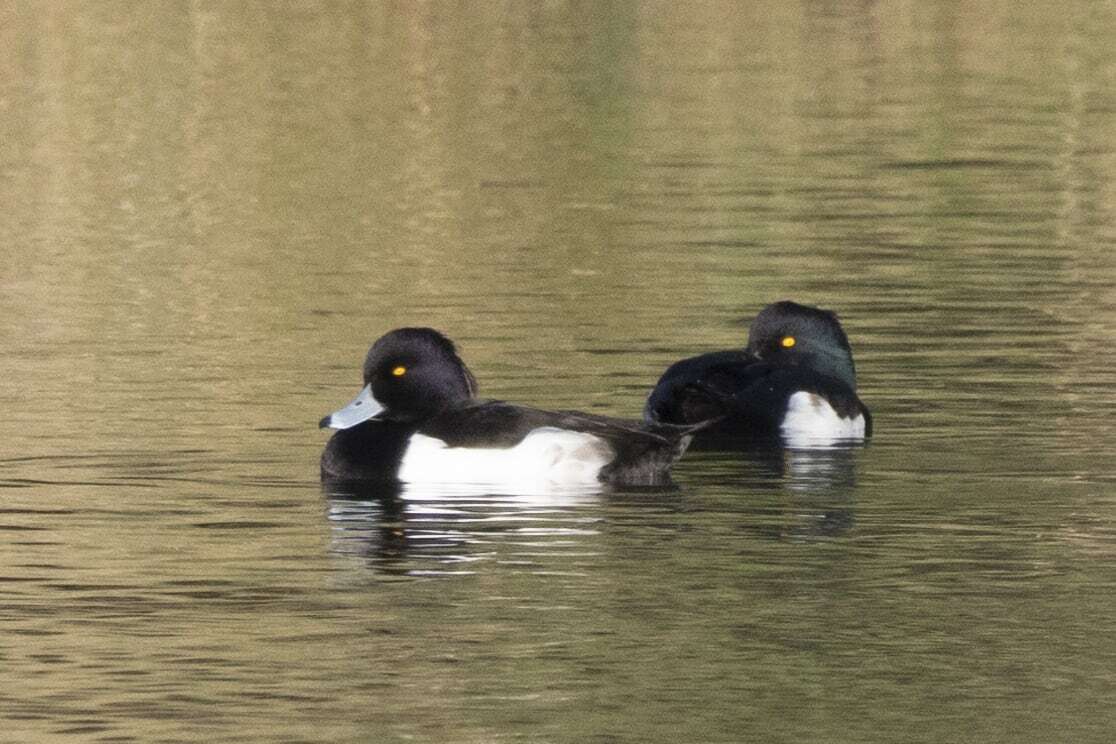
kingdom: Animalia
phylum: Chordata
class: Aves
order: Anseriformes
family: Anatidae
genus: Aythya
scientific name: Aythya fuligula
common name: Tufted duck
